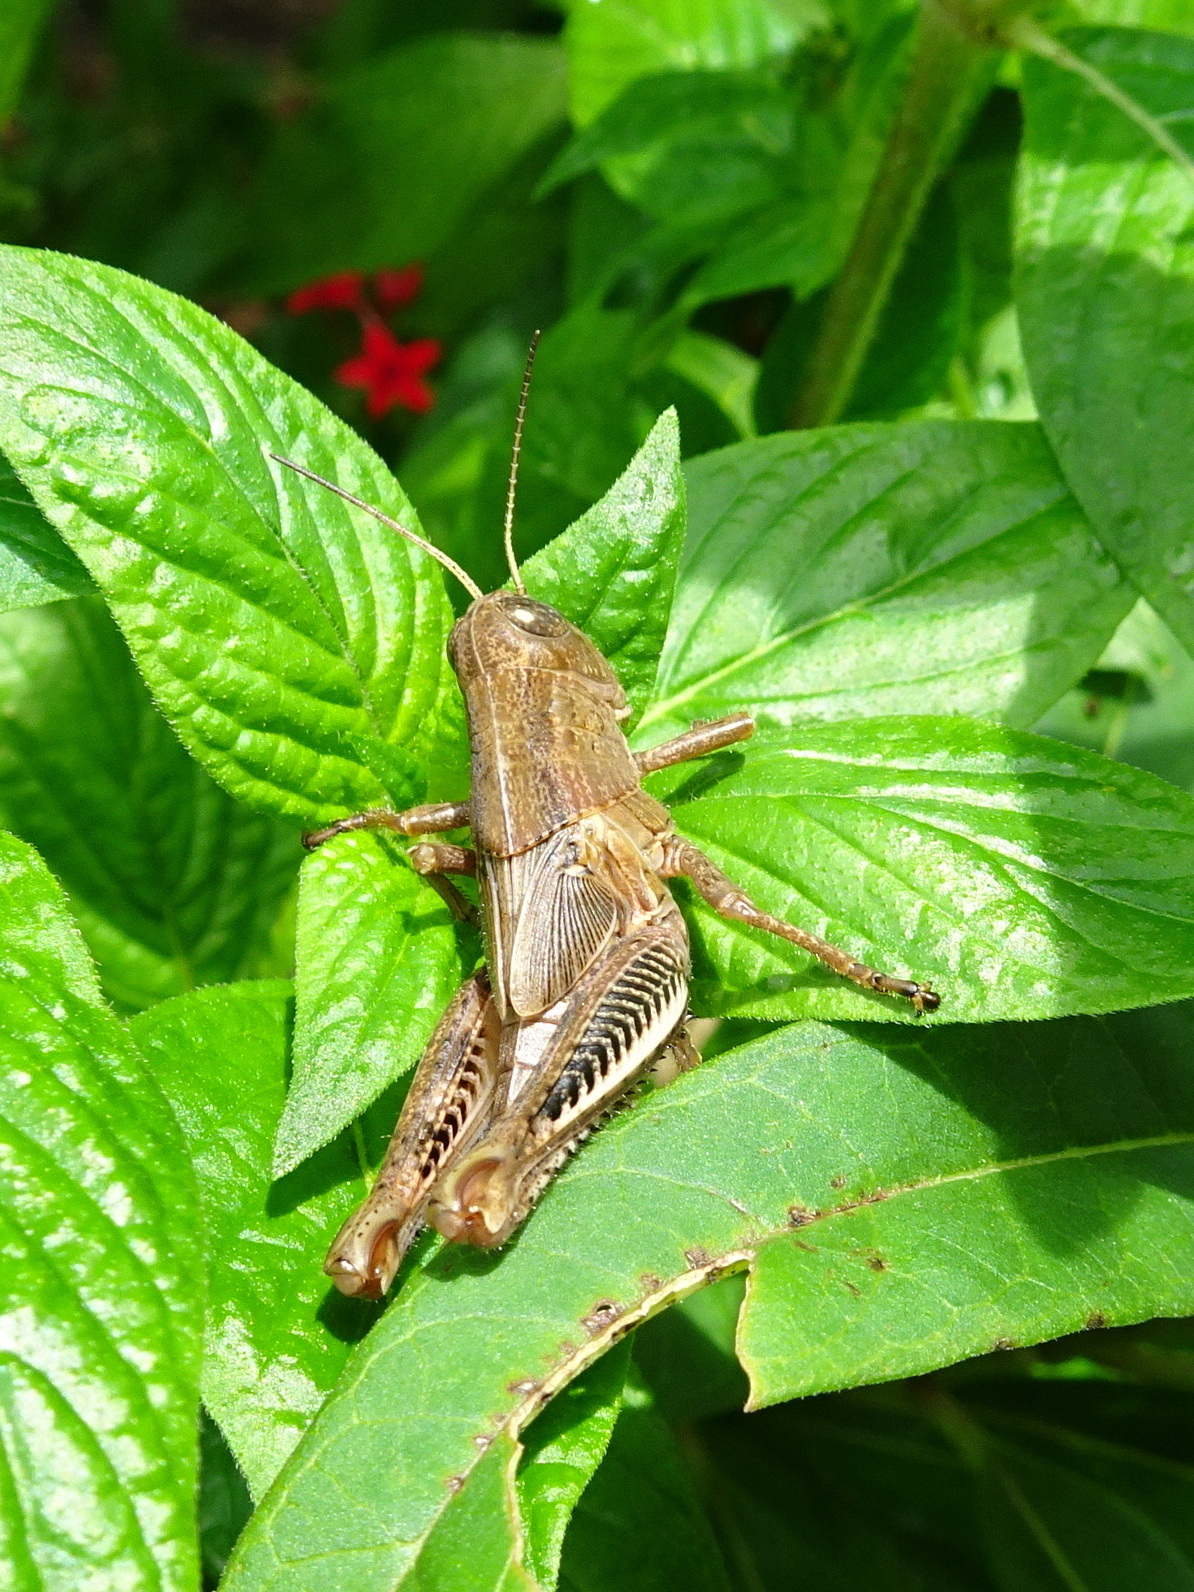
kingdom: Animalia
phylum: Arthropoda
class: Insecta
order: Orthoptera
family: Acrididae
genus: Melanoplus
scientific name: Melanoplus differentialis
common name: Differential grasshopper
